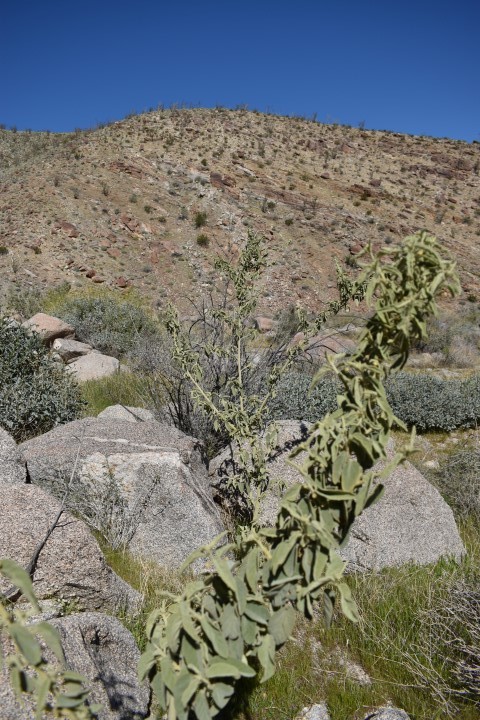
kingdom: Plantae
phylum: Tracheophyta
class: Magnoliopsida
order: Malvales
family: Malvaceae
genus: Horsfordia
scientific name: Horsfordia newberryi
